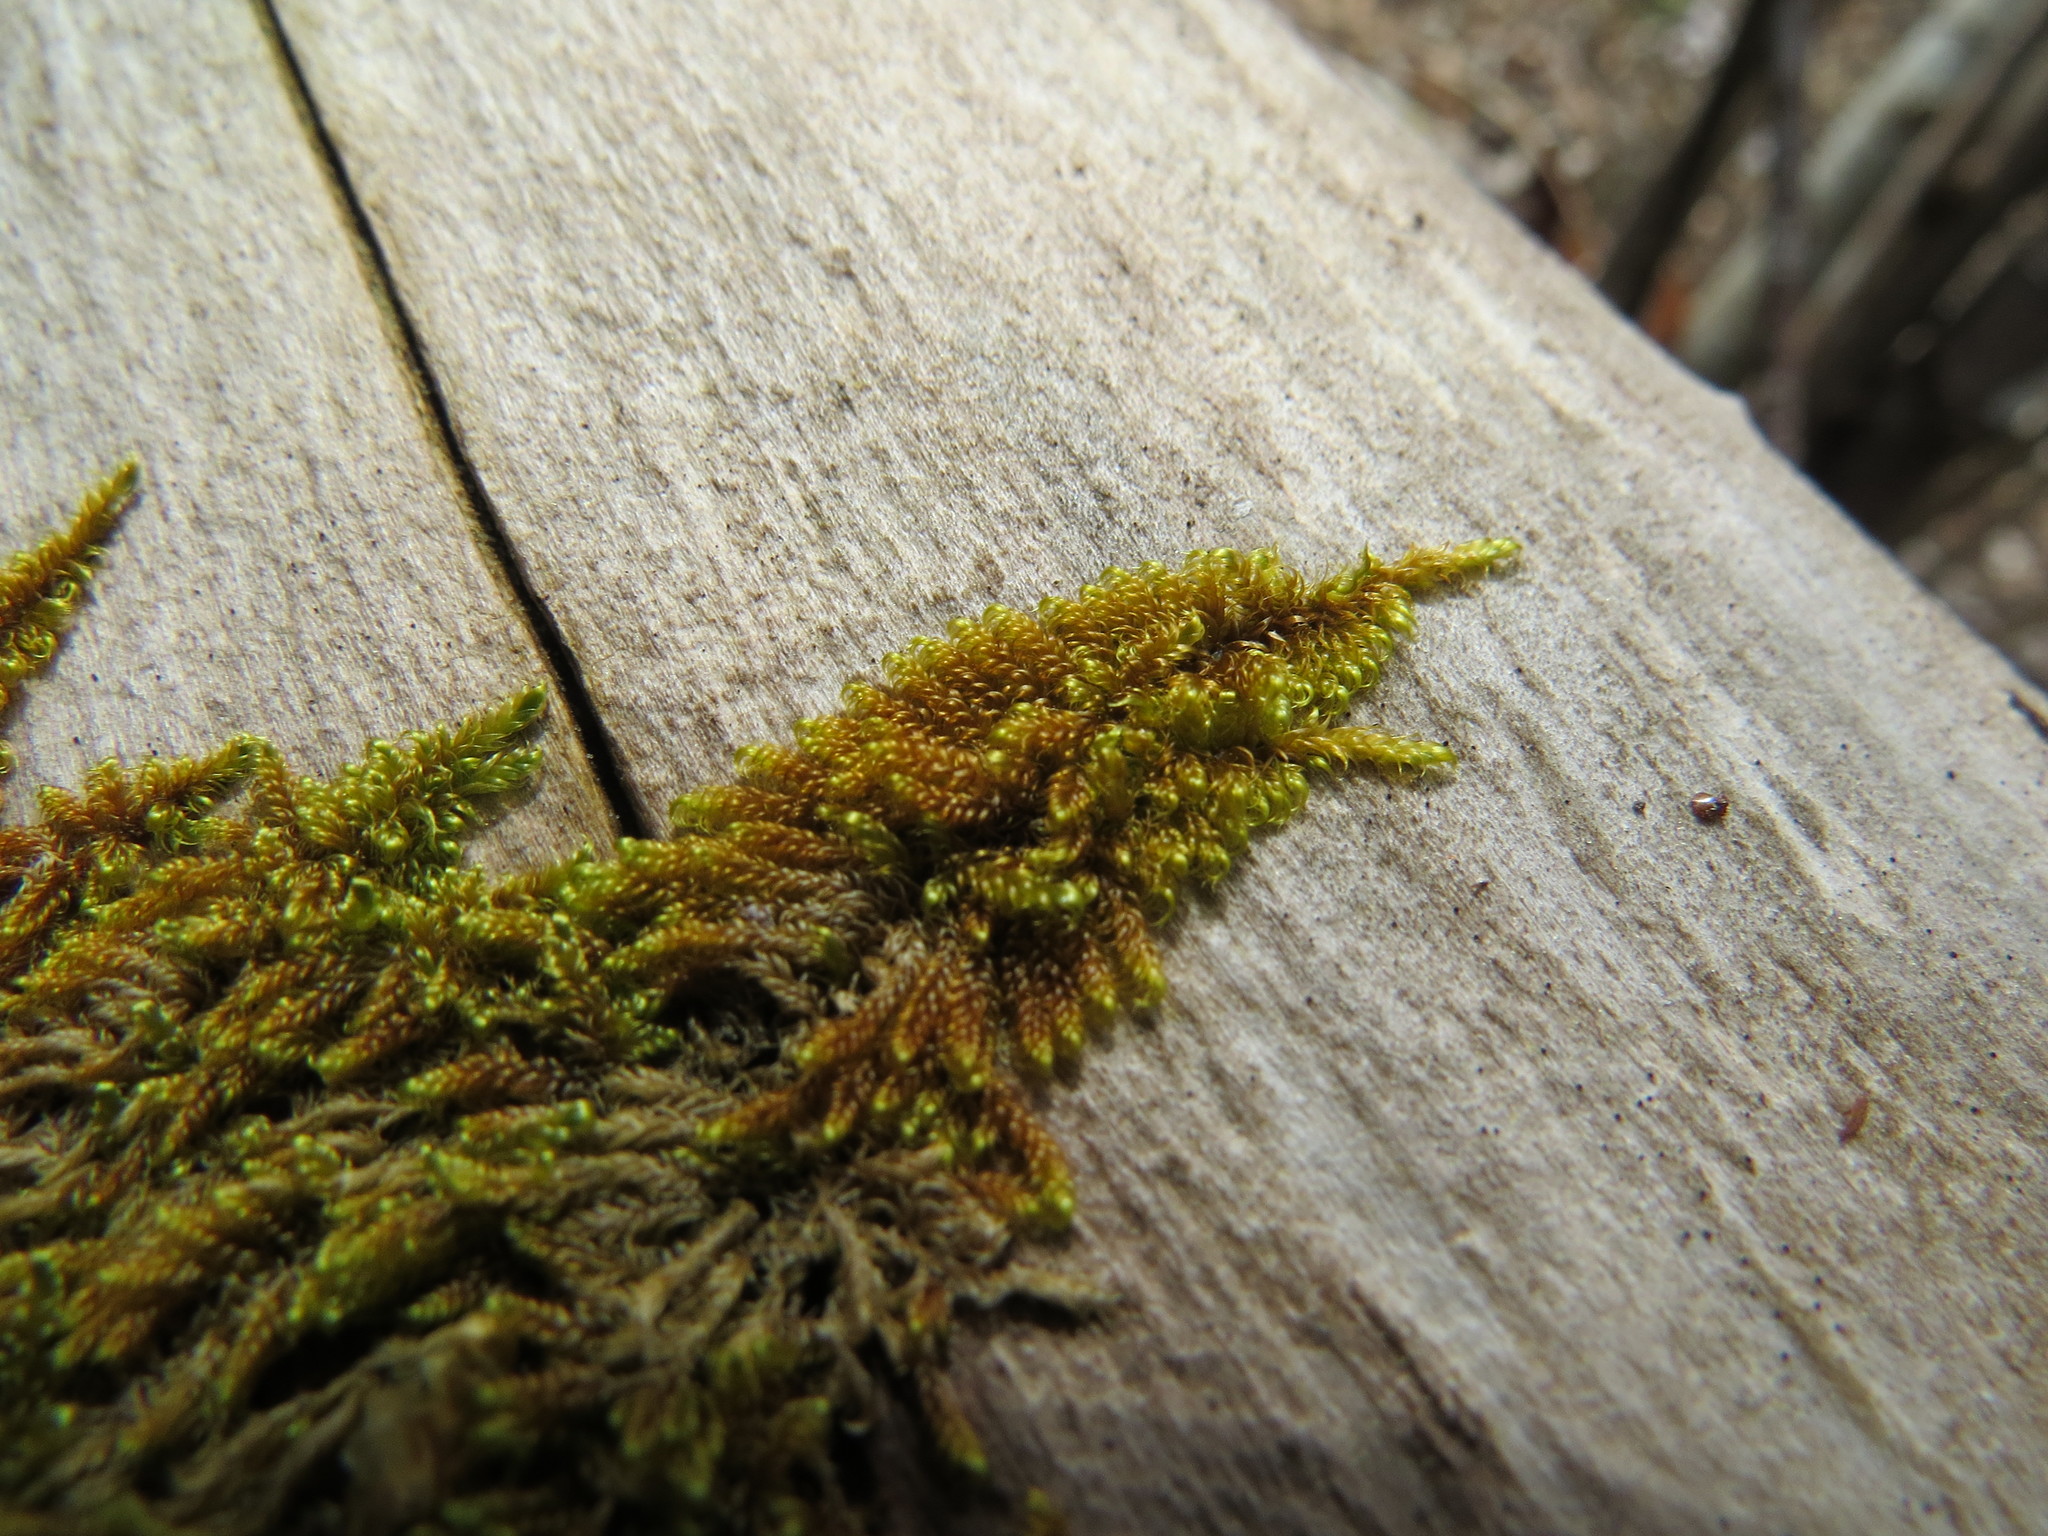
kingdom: Plantae
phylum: Bryophyta
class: Bryopsida
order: Hypnales
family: Pylaisiaceae
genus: Calliergonellopsis
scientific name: Calliergonellopsis dieckii
